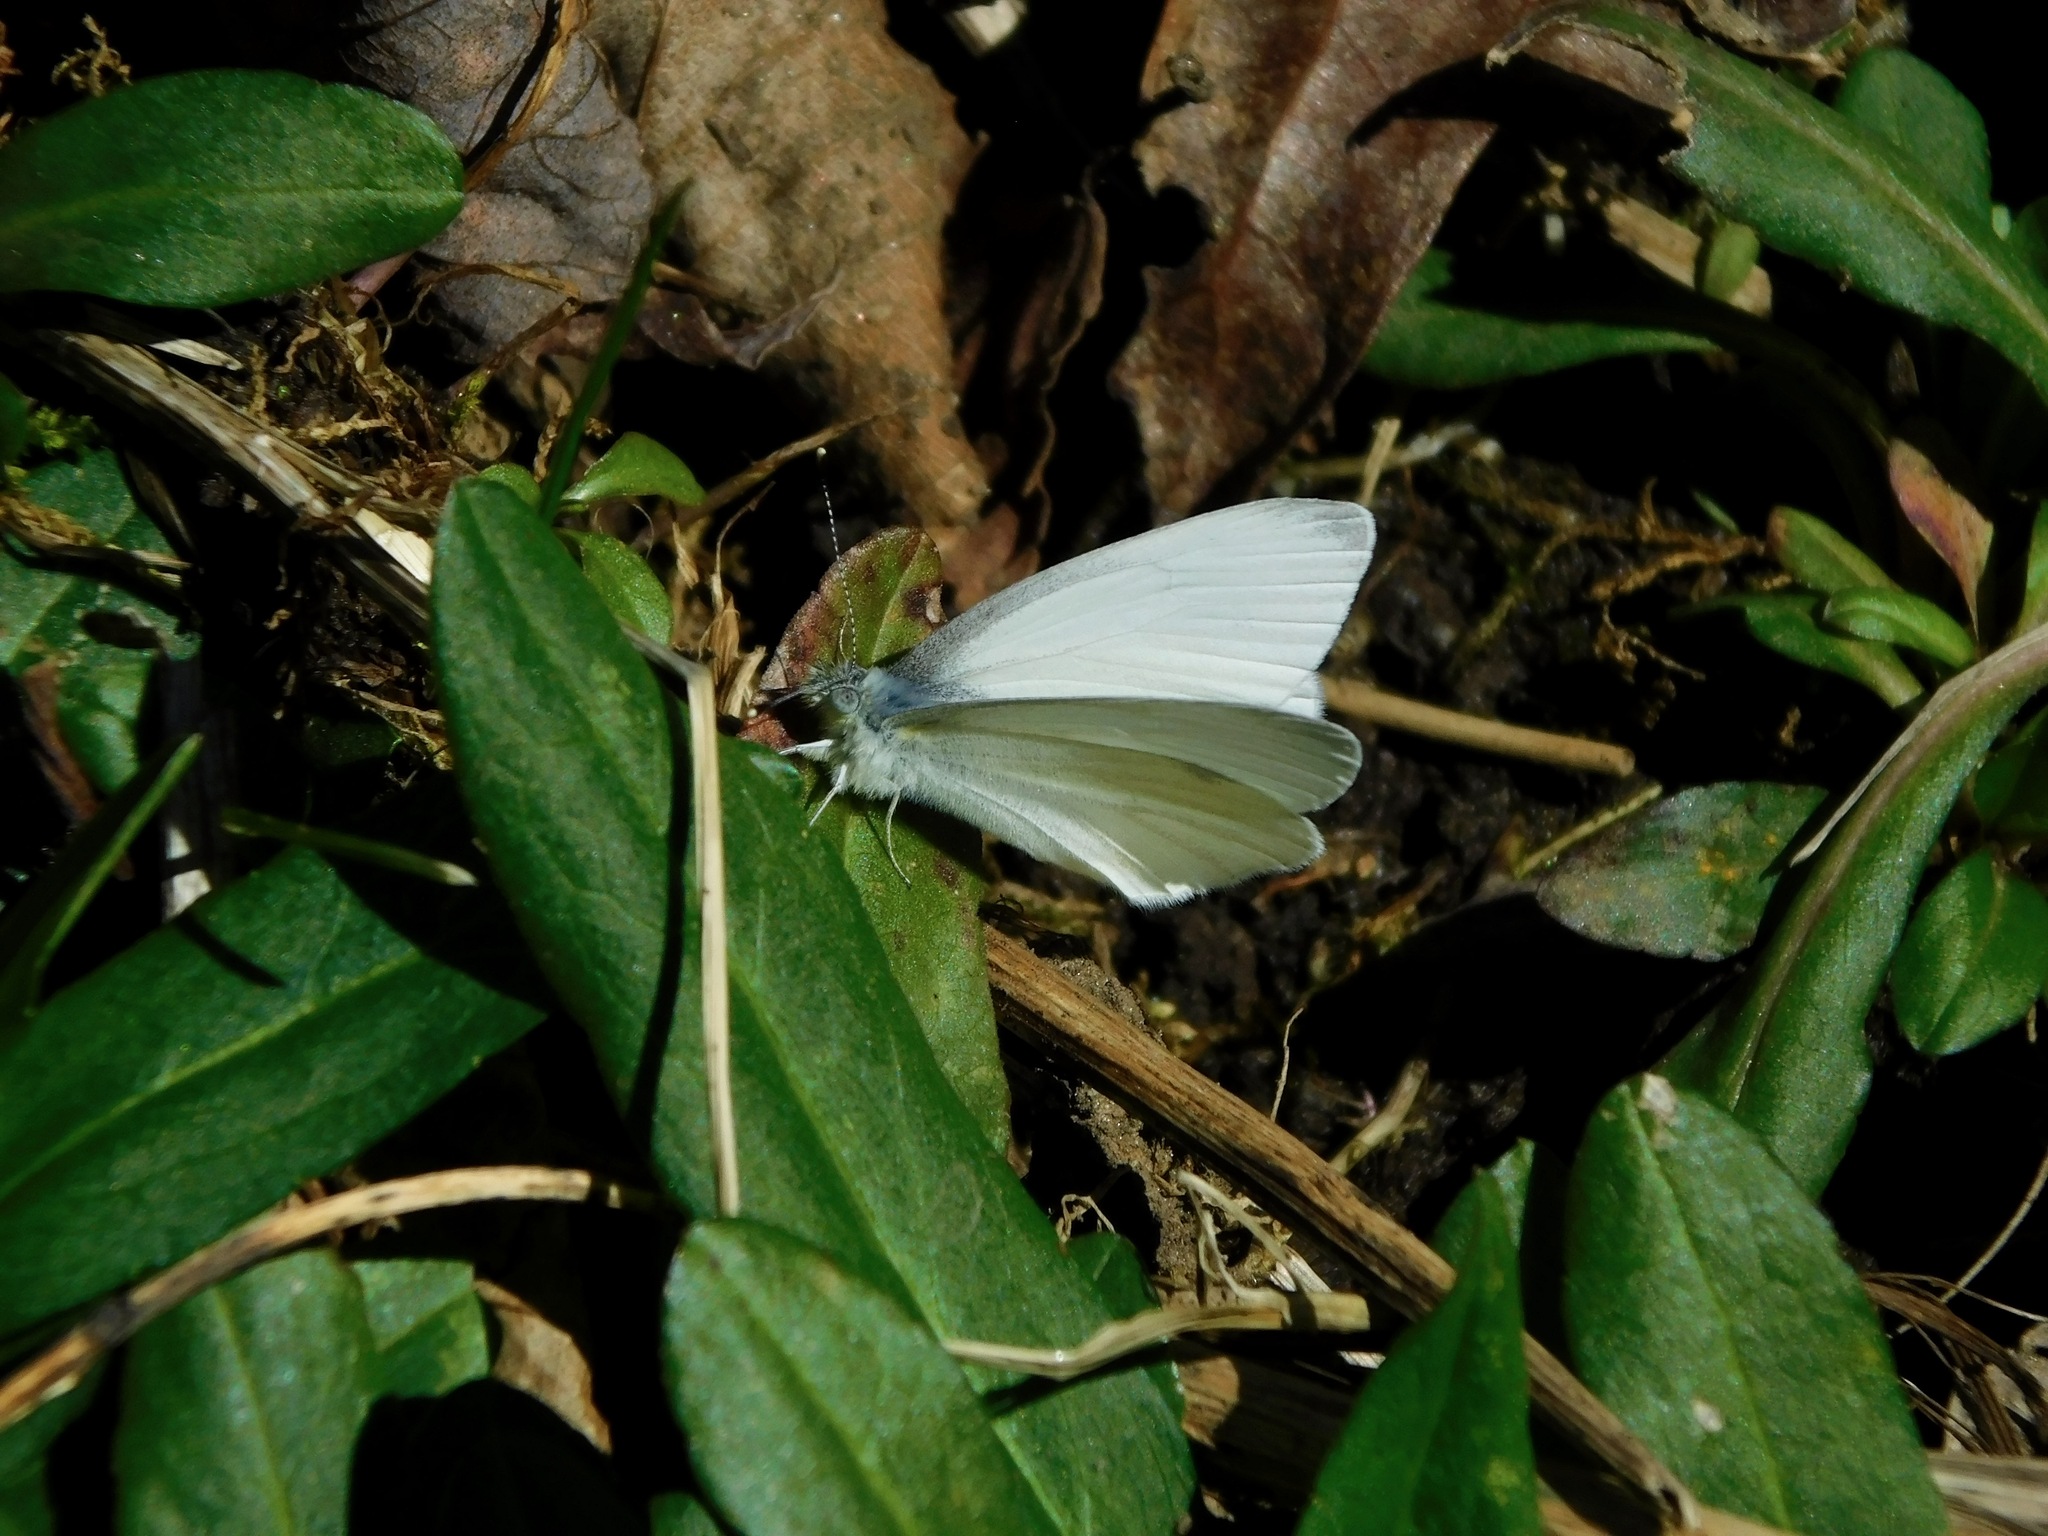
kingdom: Animalia
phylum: Arthropoda
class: Insecta
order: Lepidoptera
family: Pieridae
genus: Pieris
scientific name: Pieris virginiensis
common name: West virginia white
